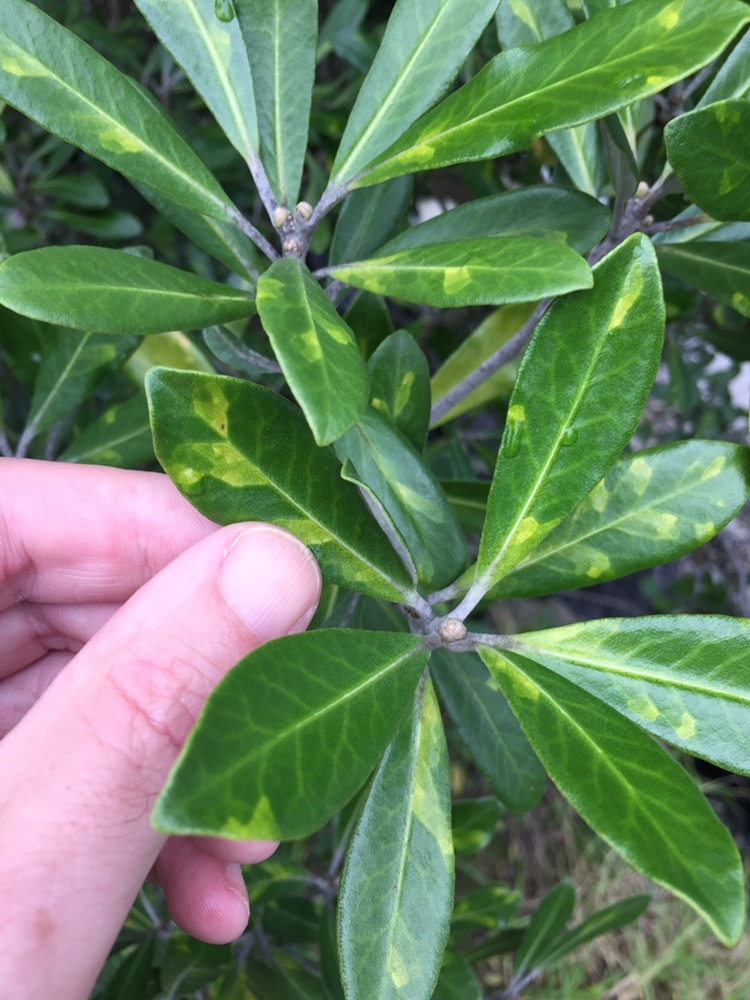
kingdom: Animalia
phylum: Nematoda
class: Chromadorea
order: Rhabditida
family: Anguinidae
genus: Zeatylenchus
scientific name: Zeatylenchus pittosporum
